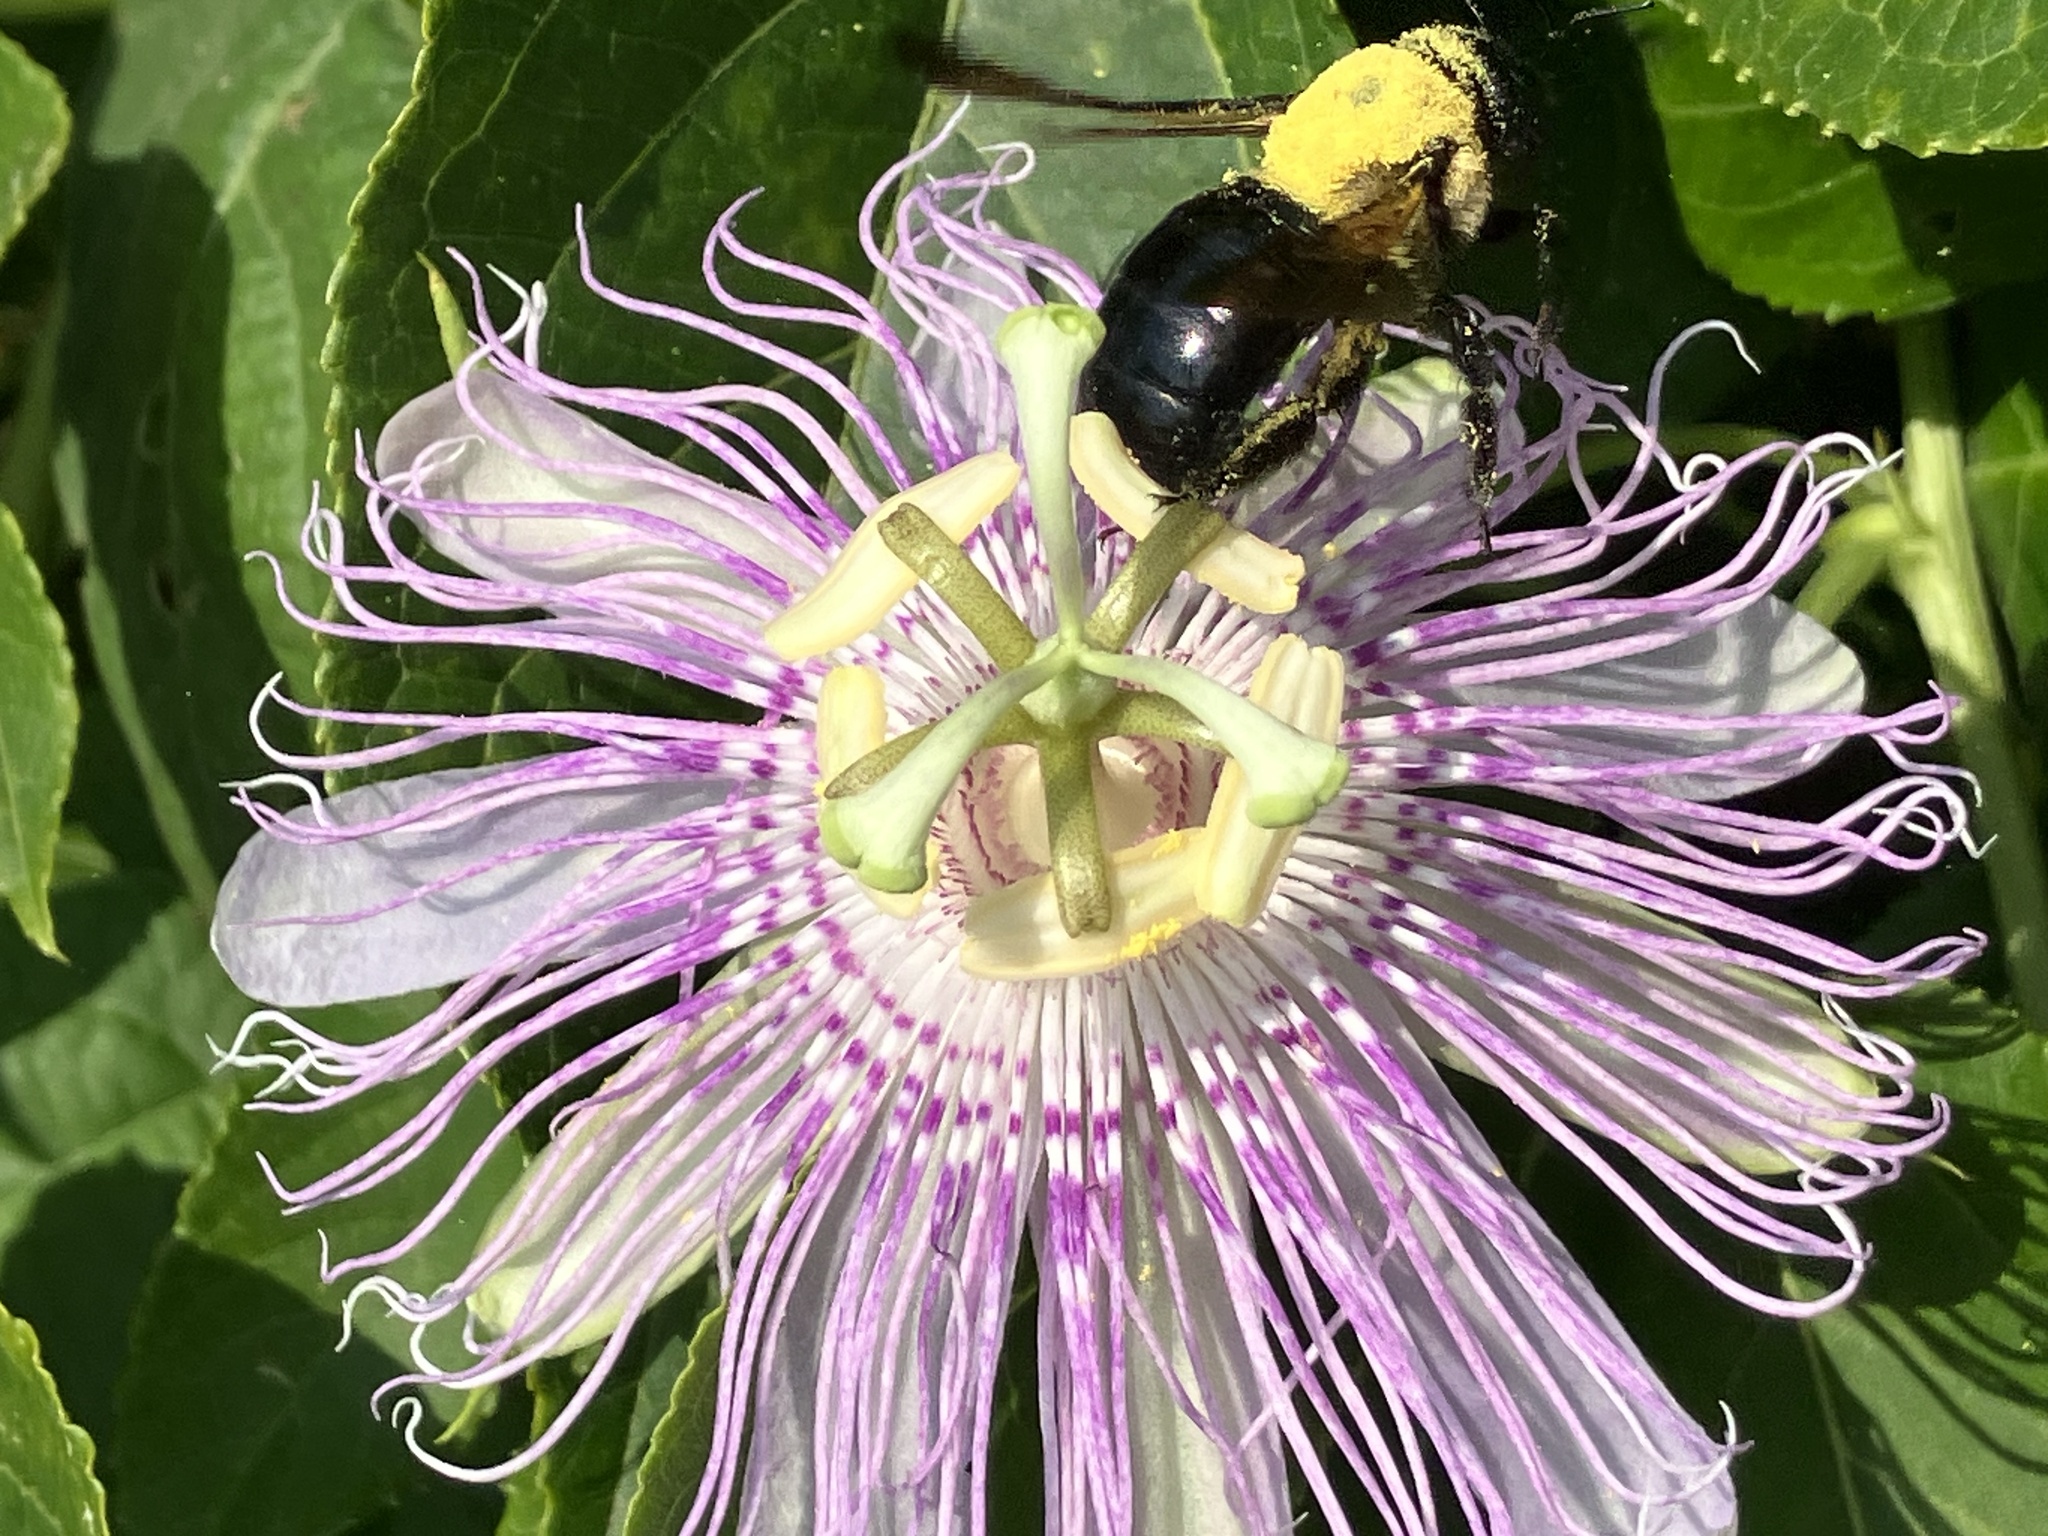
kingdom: Animalia
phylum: Arthropoda
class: Insecta
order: Hymenoptera
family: Apidae
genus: Xylocopa
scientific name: Xylocopa virginica
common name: Carpenter bee
